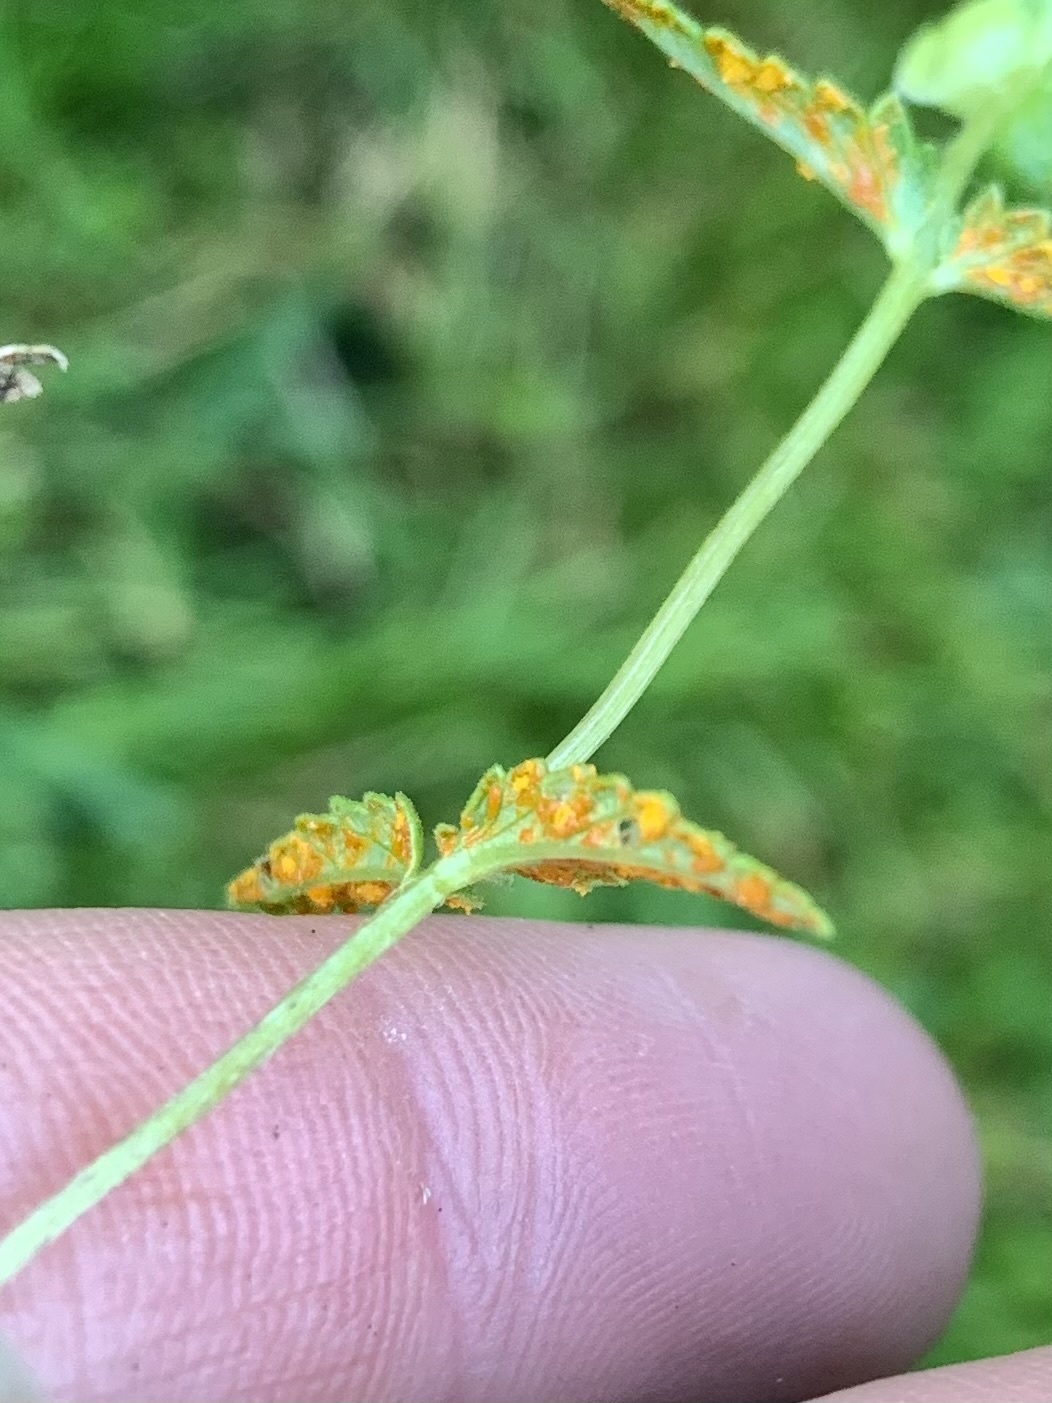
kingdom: Fungi
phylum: Basidiomycota
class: Pucciniomycetes
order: Pucciniales
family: Coleosporiaceae
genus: Coleosporium
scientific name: Coleosporium euphrasiae
